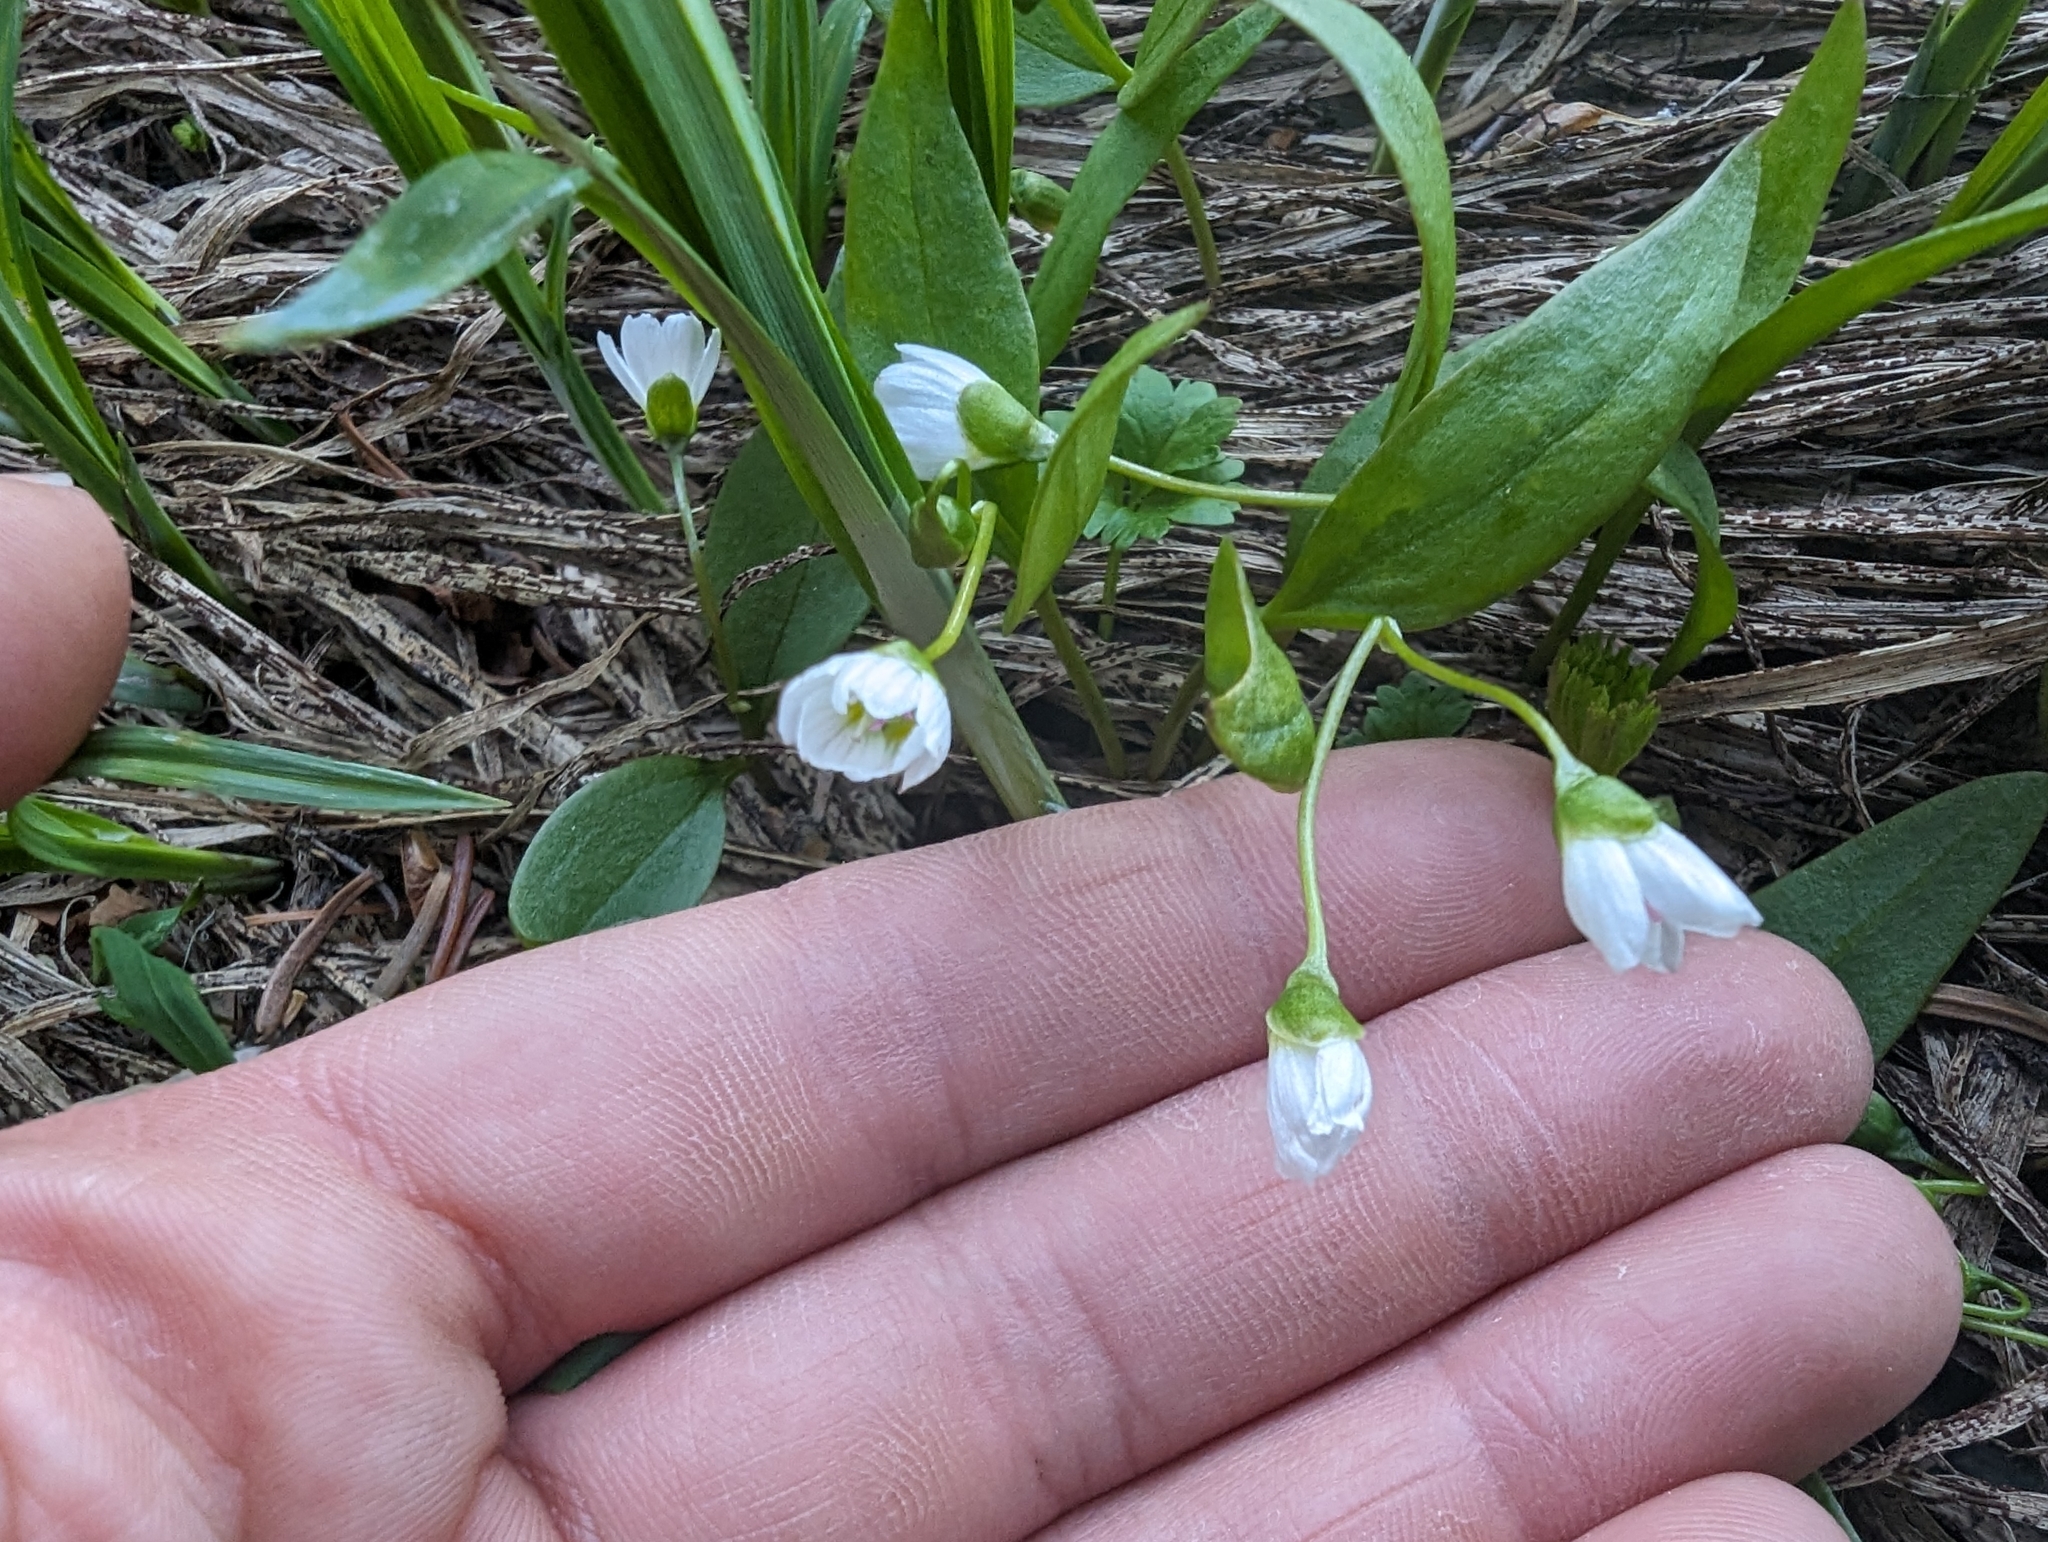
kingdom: Plantae
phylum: Tracheophyta
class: Magnoliopsida
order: Caryophyllales
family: Montiaceae
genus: Claytonia
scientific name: Claytonia lanceolata
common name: Western spring-beauty
